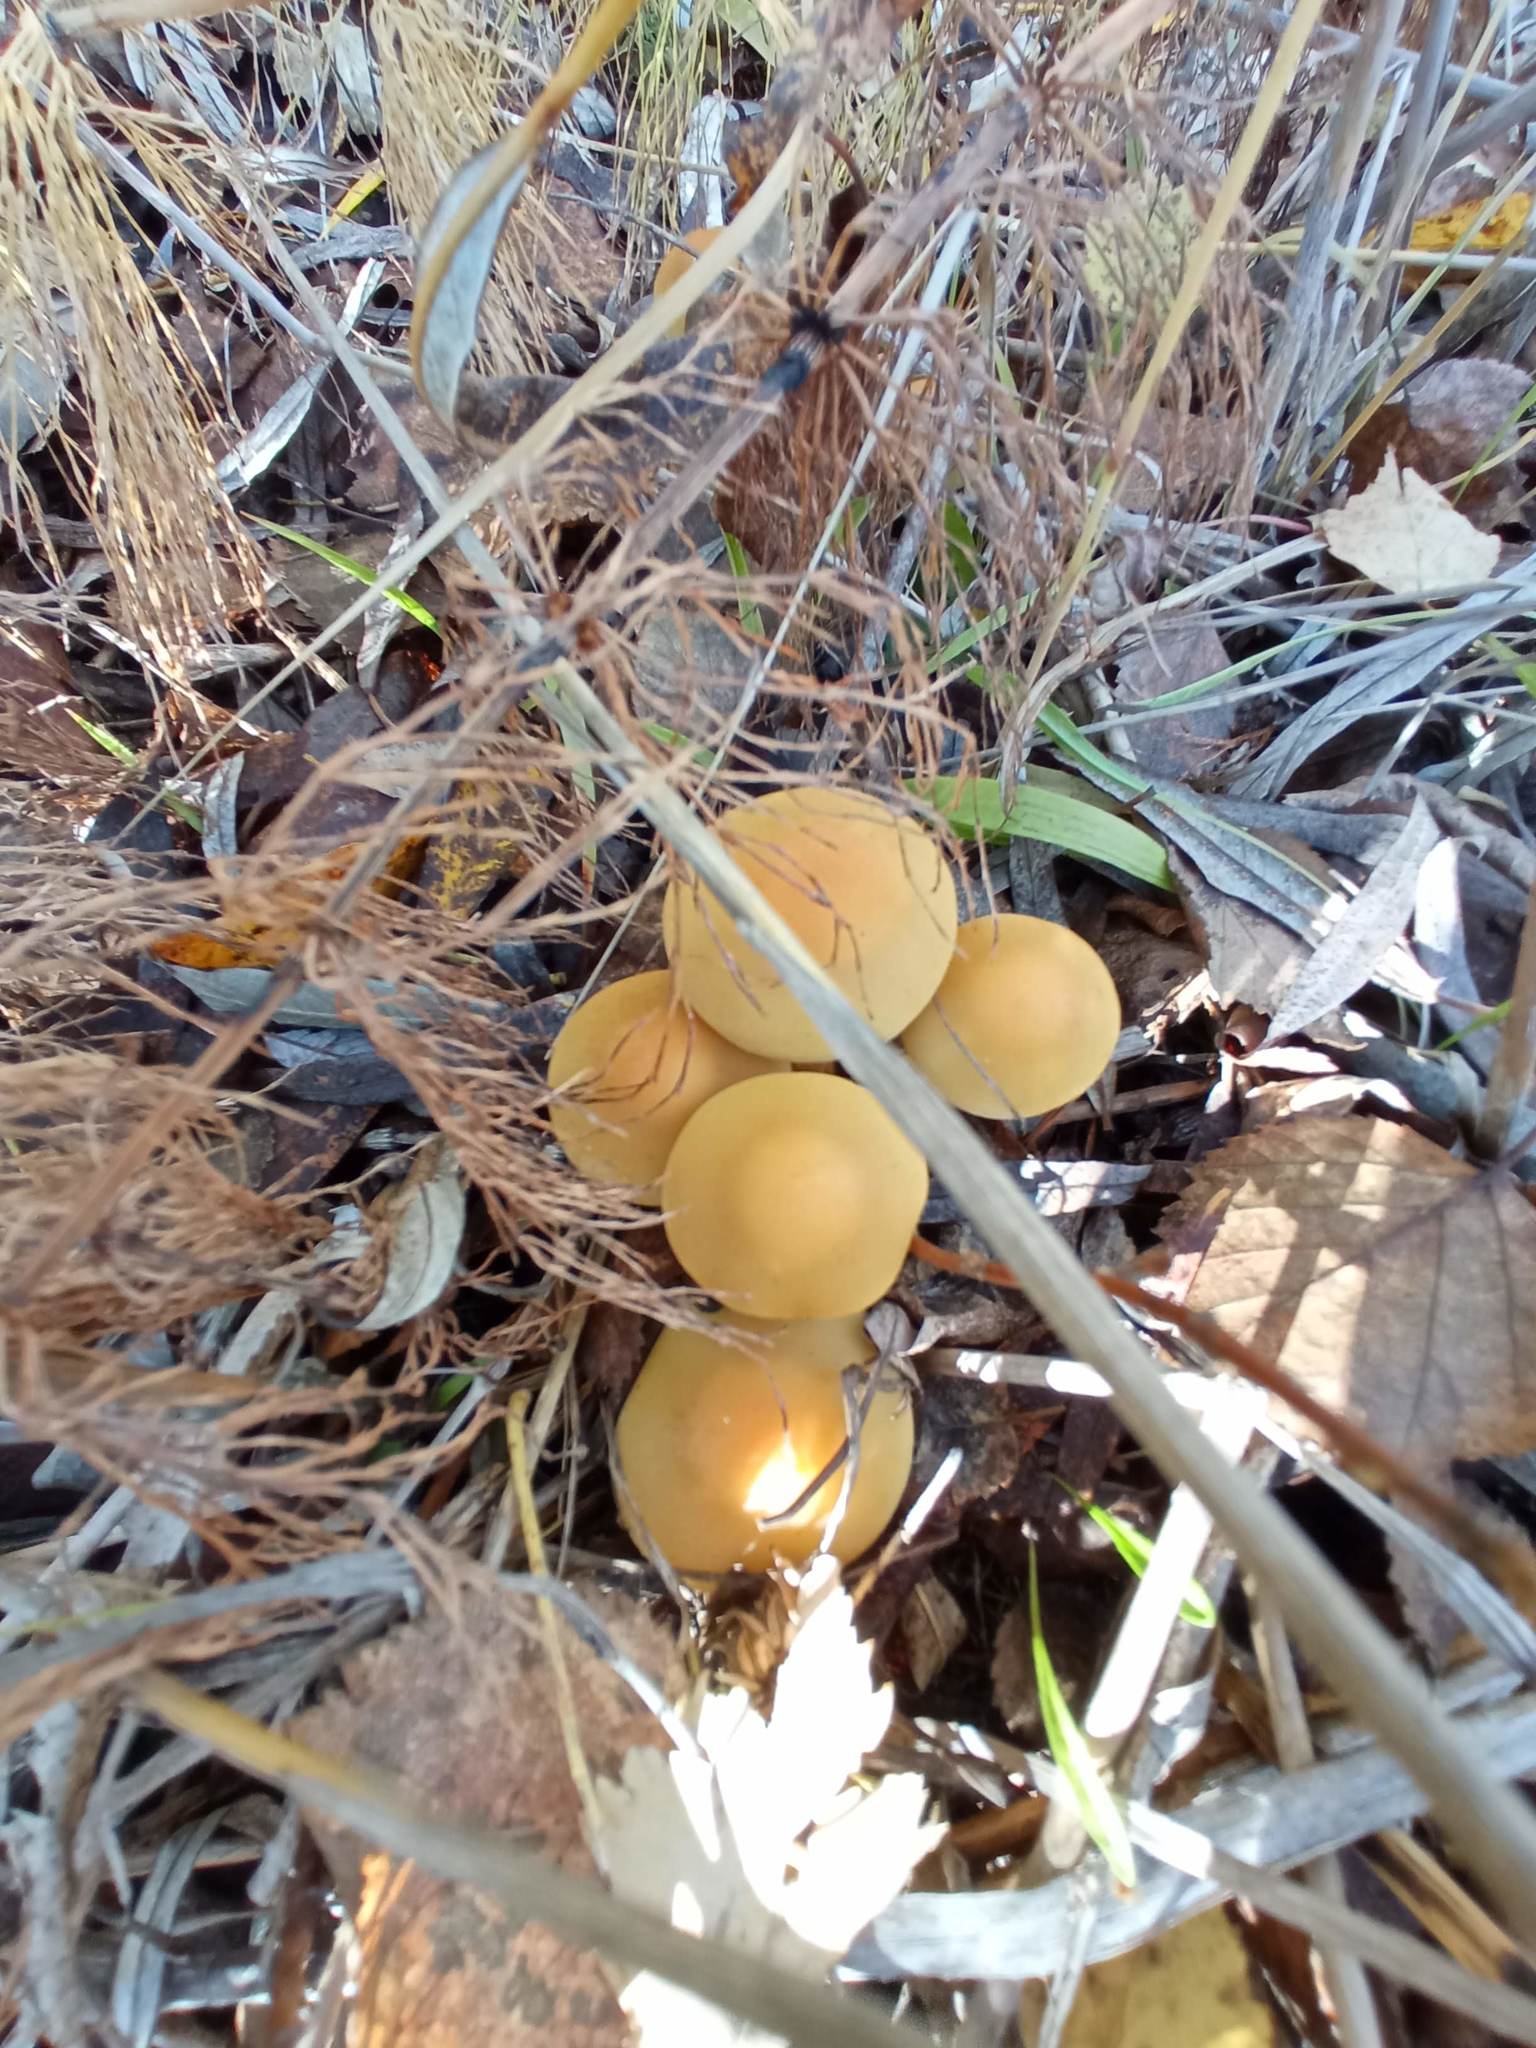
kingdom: Fungi
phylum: Basidiomycota
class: Agaricomycetes
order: Agaricales
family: Strophariaceae
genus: Hypholoma
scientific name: Hypholoma capnoides
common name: Conifer tuft
